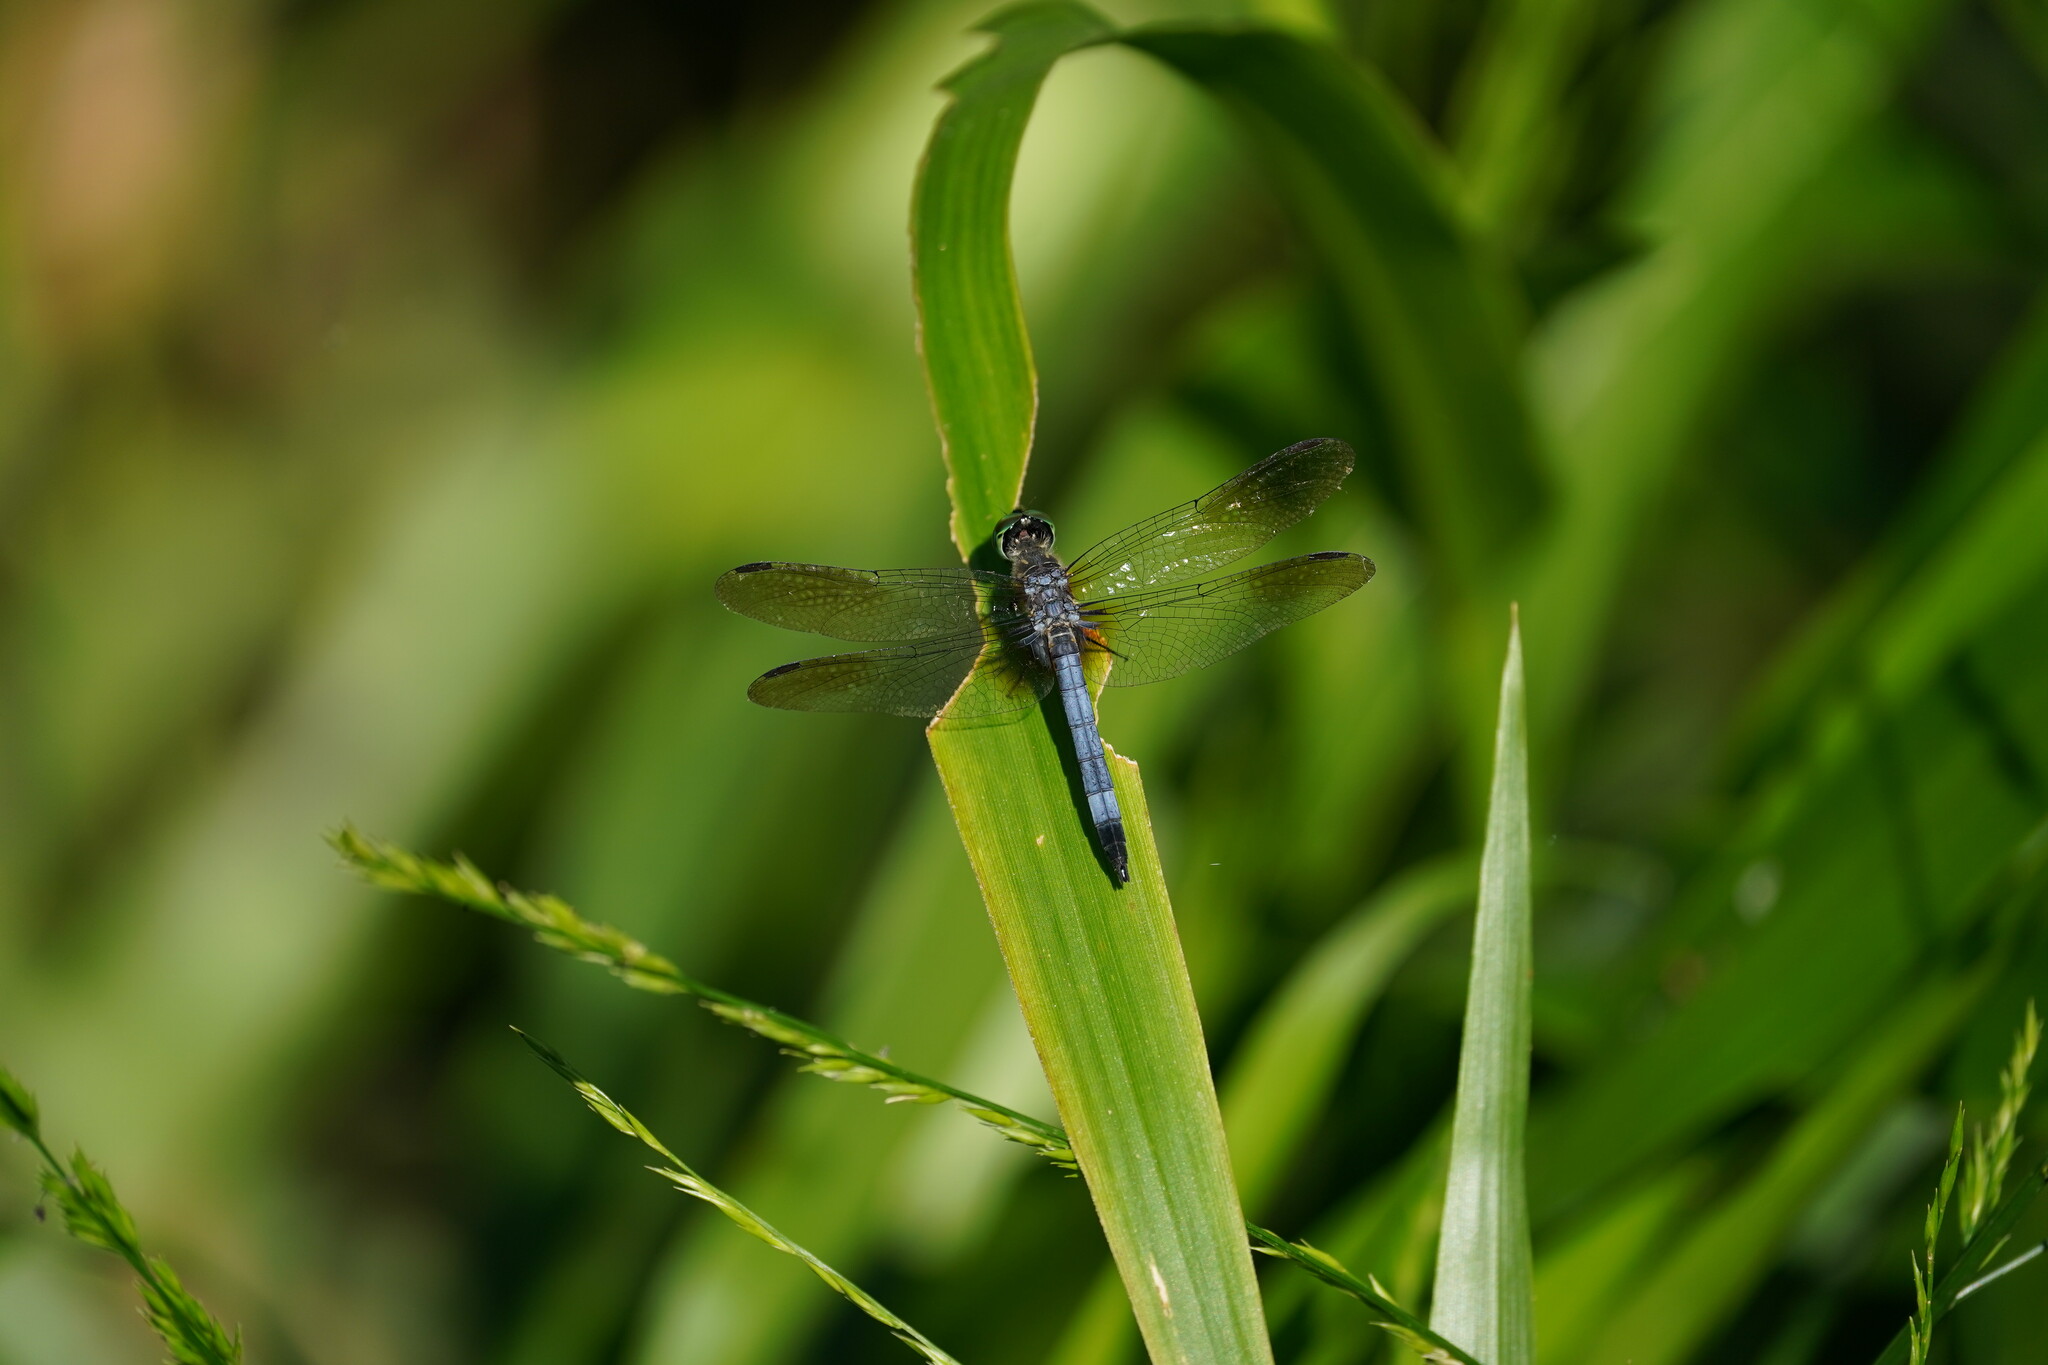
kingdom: Animalia
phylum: Arthropoda
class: Insecta
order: Odonata
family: Libellulidae
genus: Pachydiplax
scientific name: Pachydiplax longipennis
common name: Blue dasher
